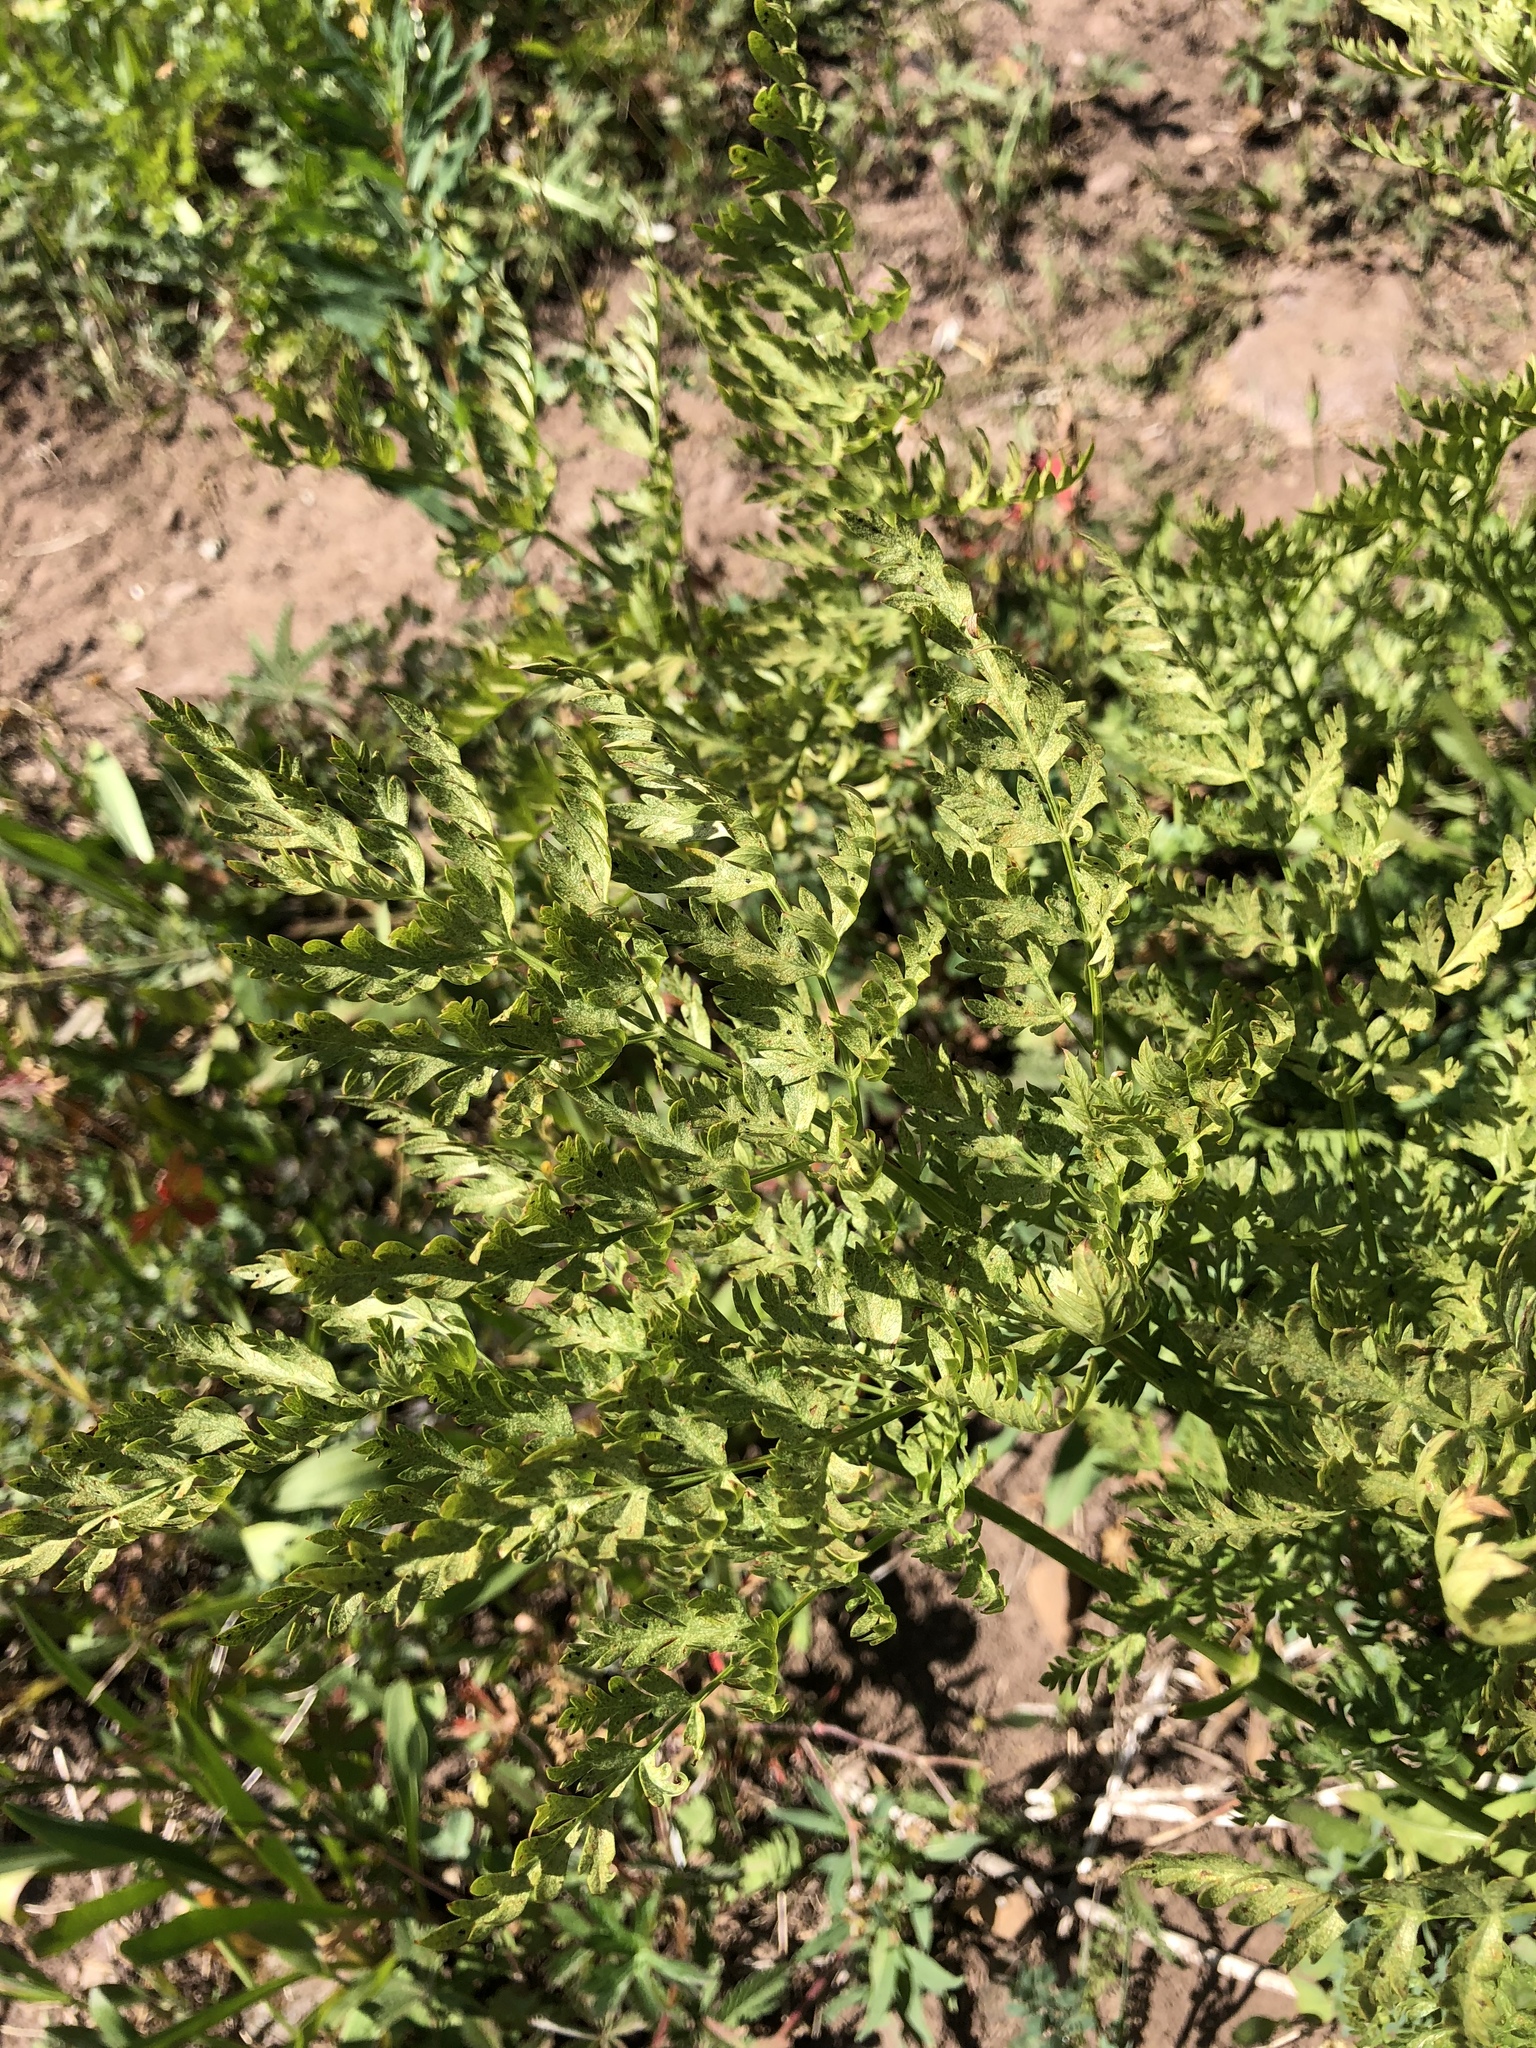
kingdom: Plantae
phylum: Tracheophyta
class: Magnoliopsida
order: Apiales
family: Apiaceae
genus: Ligusticum
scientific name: Ligusticum porteri
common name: Mountain lovage
